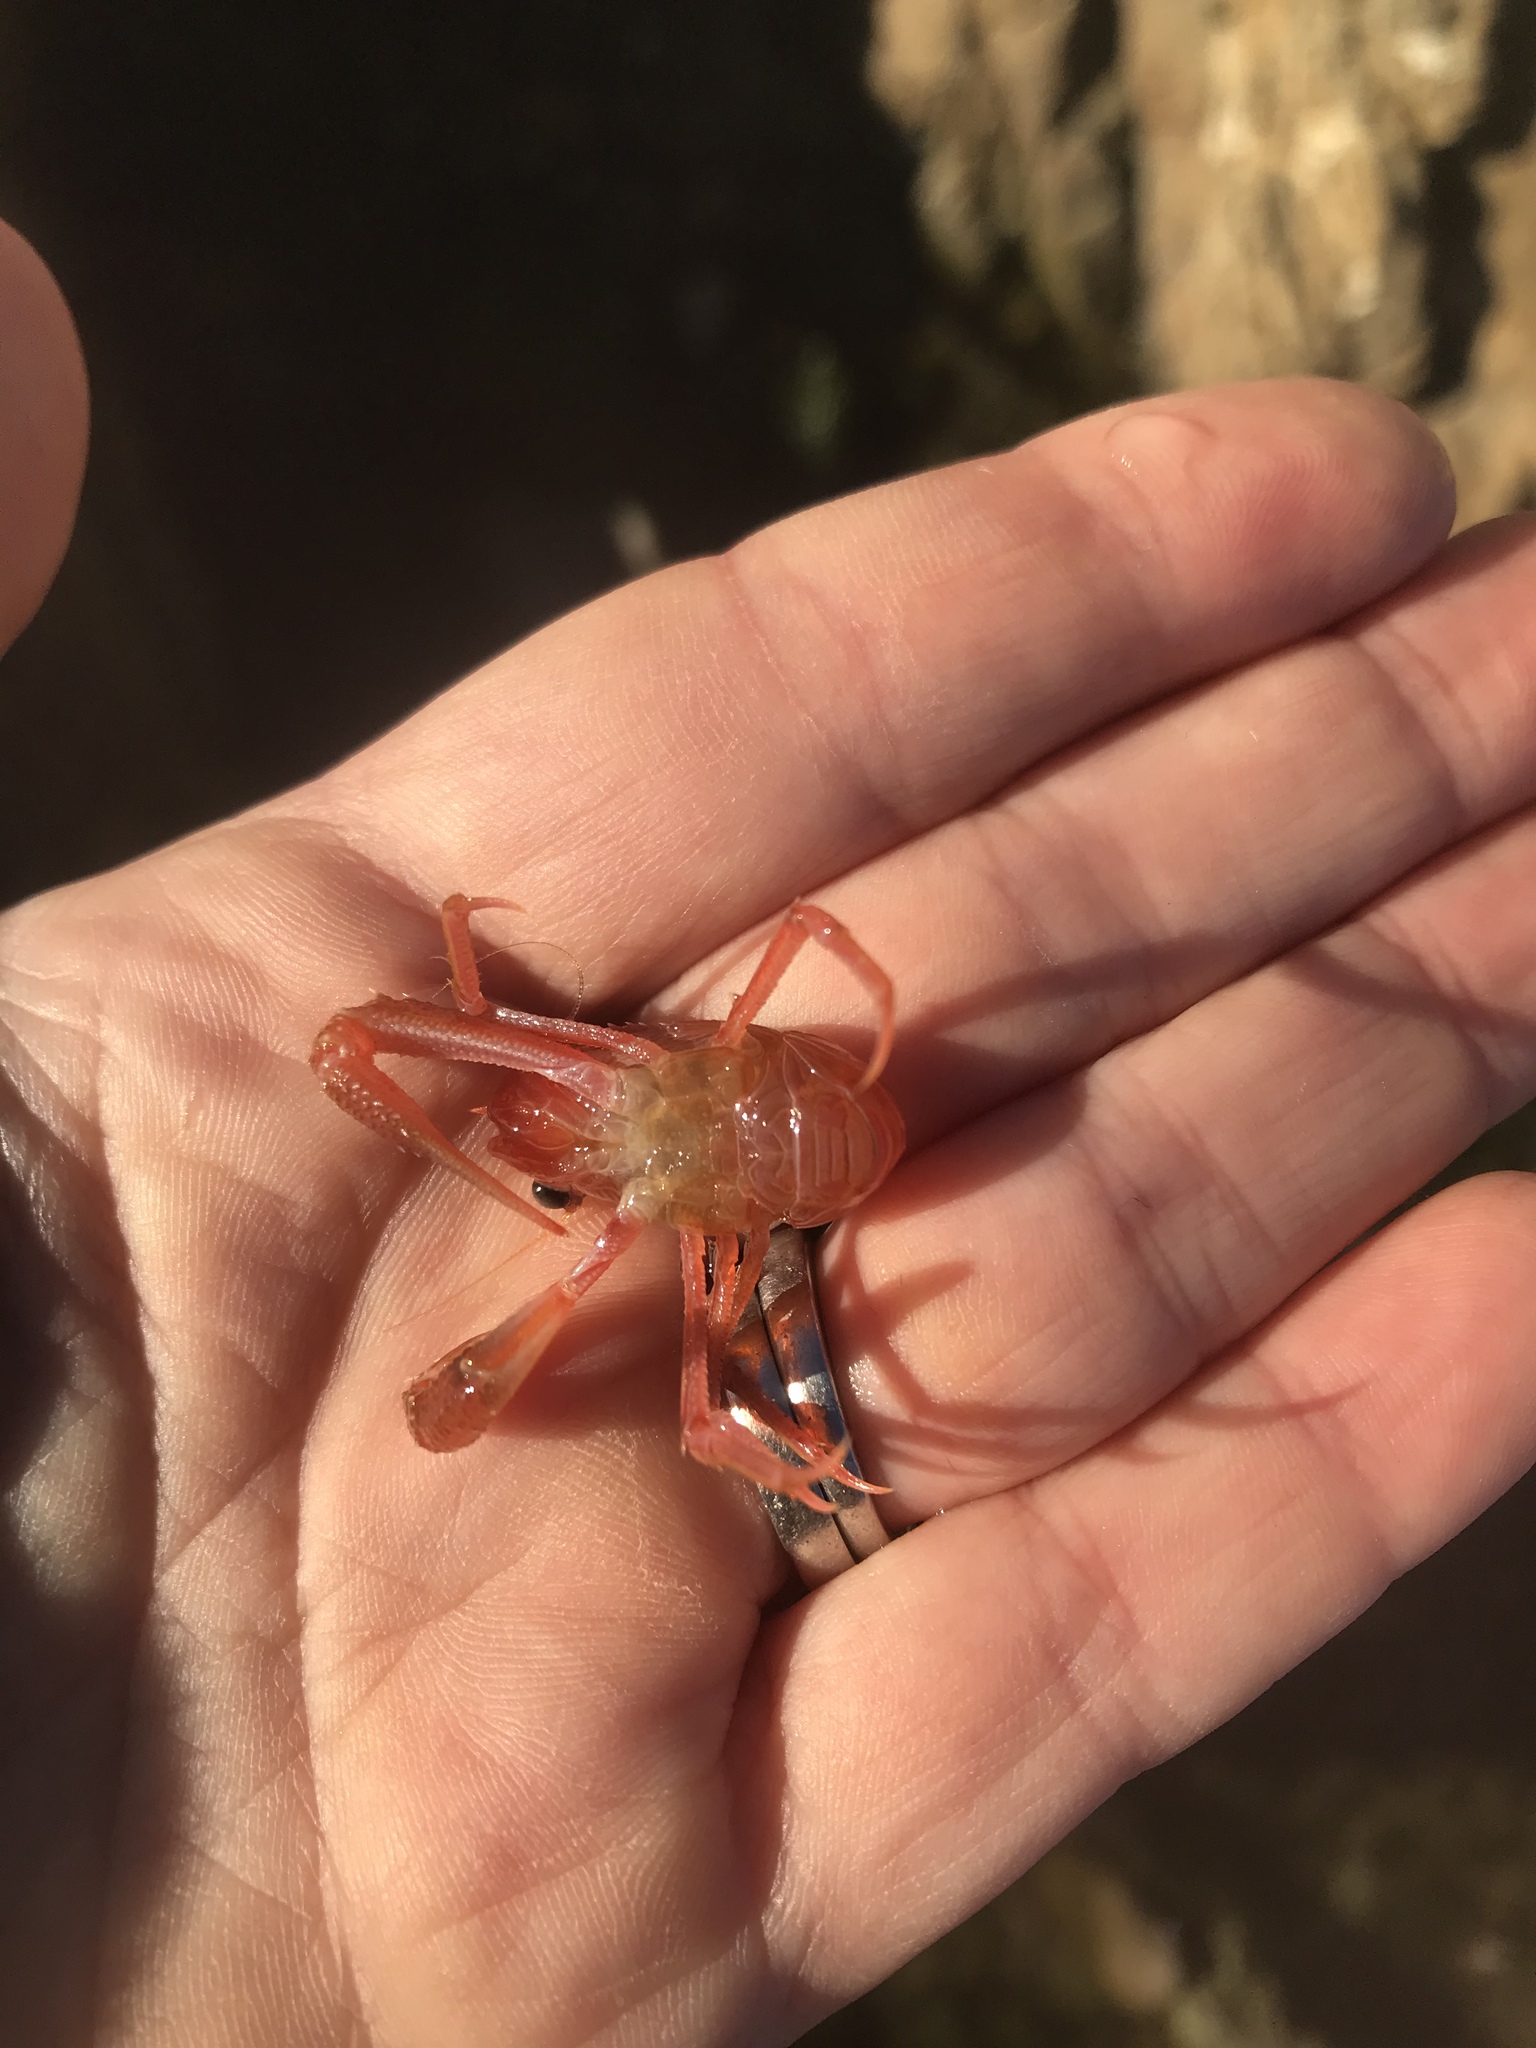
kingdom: Animalia
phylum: Arthropoda
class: Malacostraca
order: Decapoda
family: Munididae
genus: Grimothea
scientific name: Grimothea gregaria
